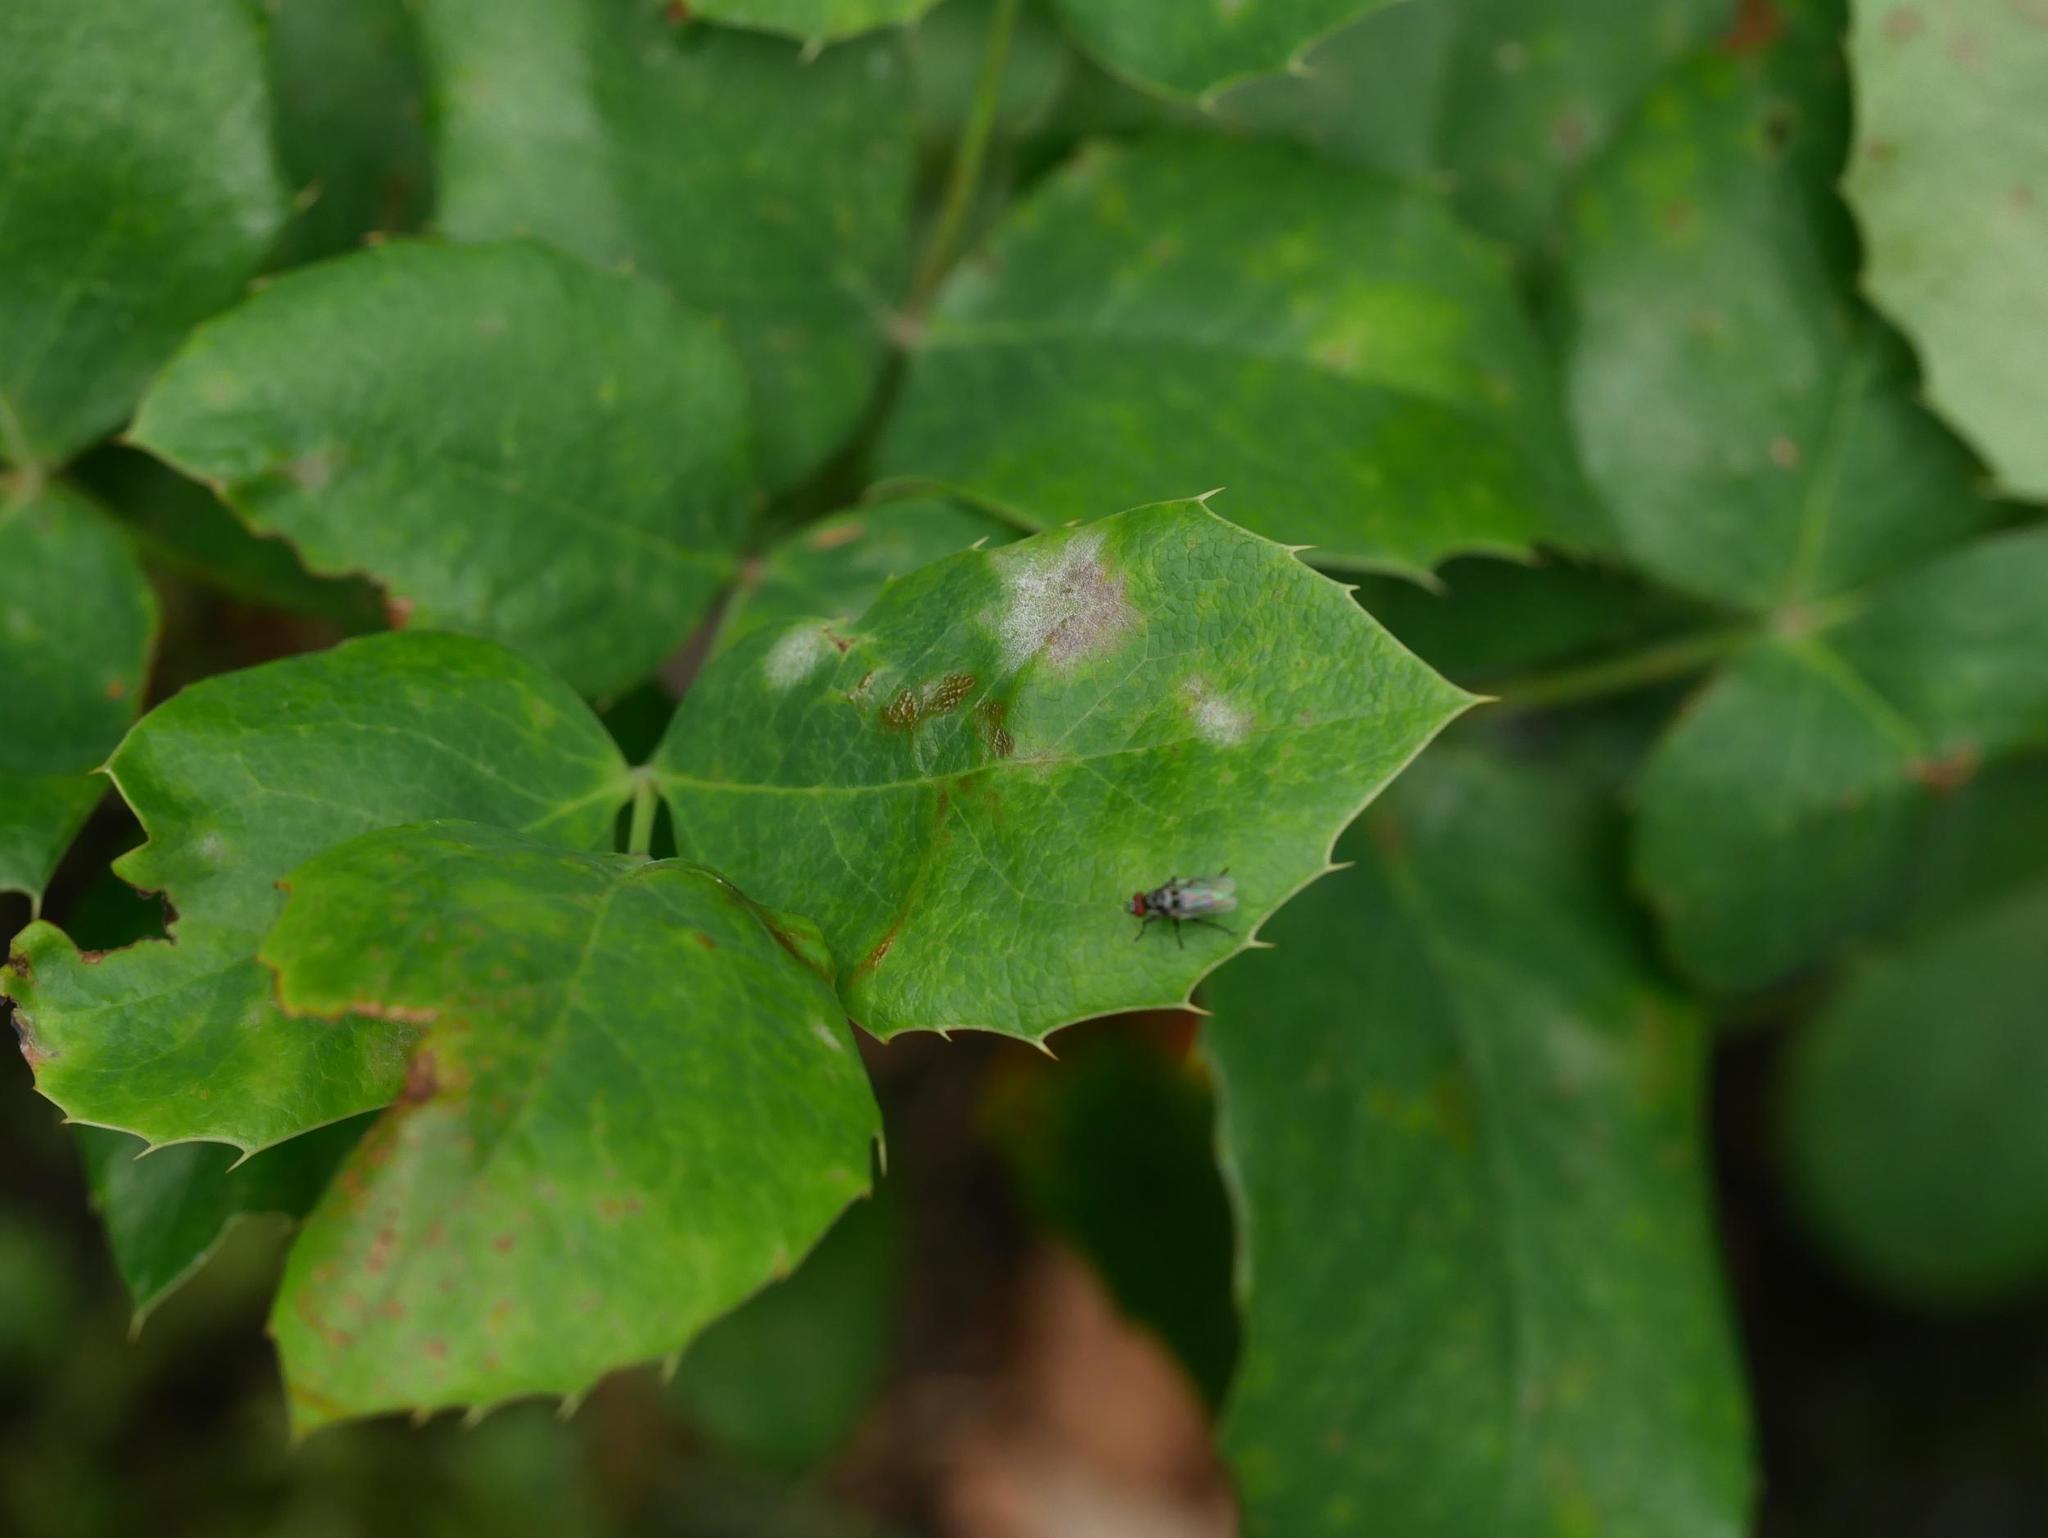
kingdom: Fungi
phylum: Ascomycota
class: Leotiomycetes
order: Helotiales
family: Erysiphaceae
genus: Erysiphe
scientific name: Erysiphe berberidis
